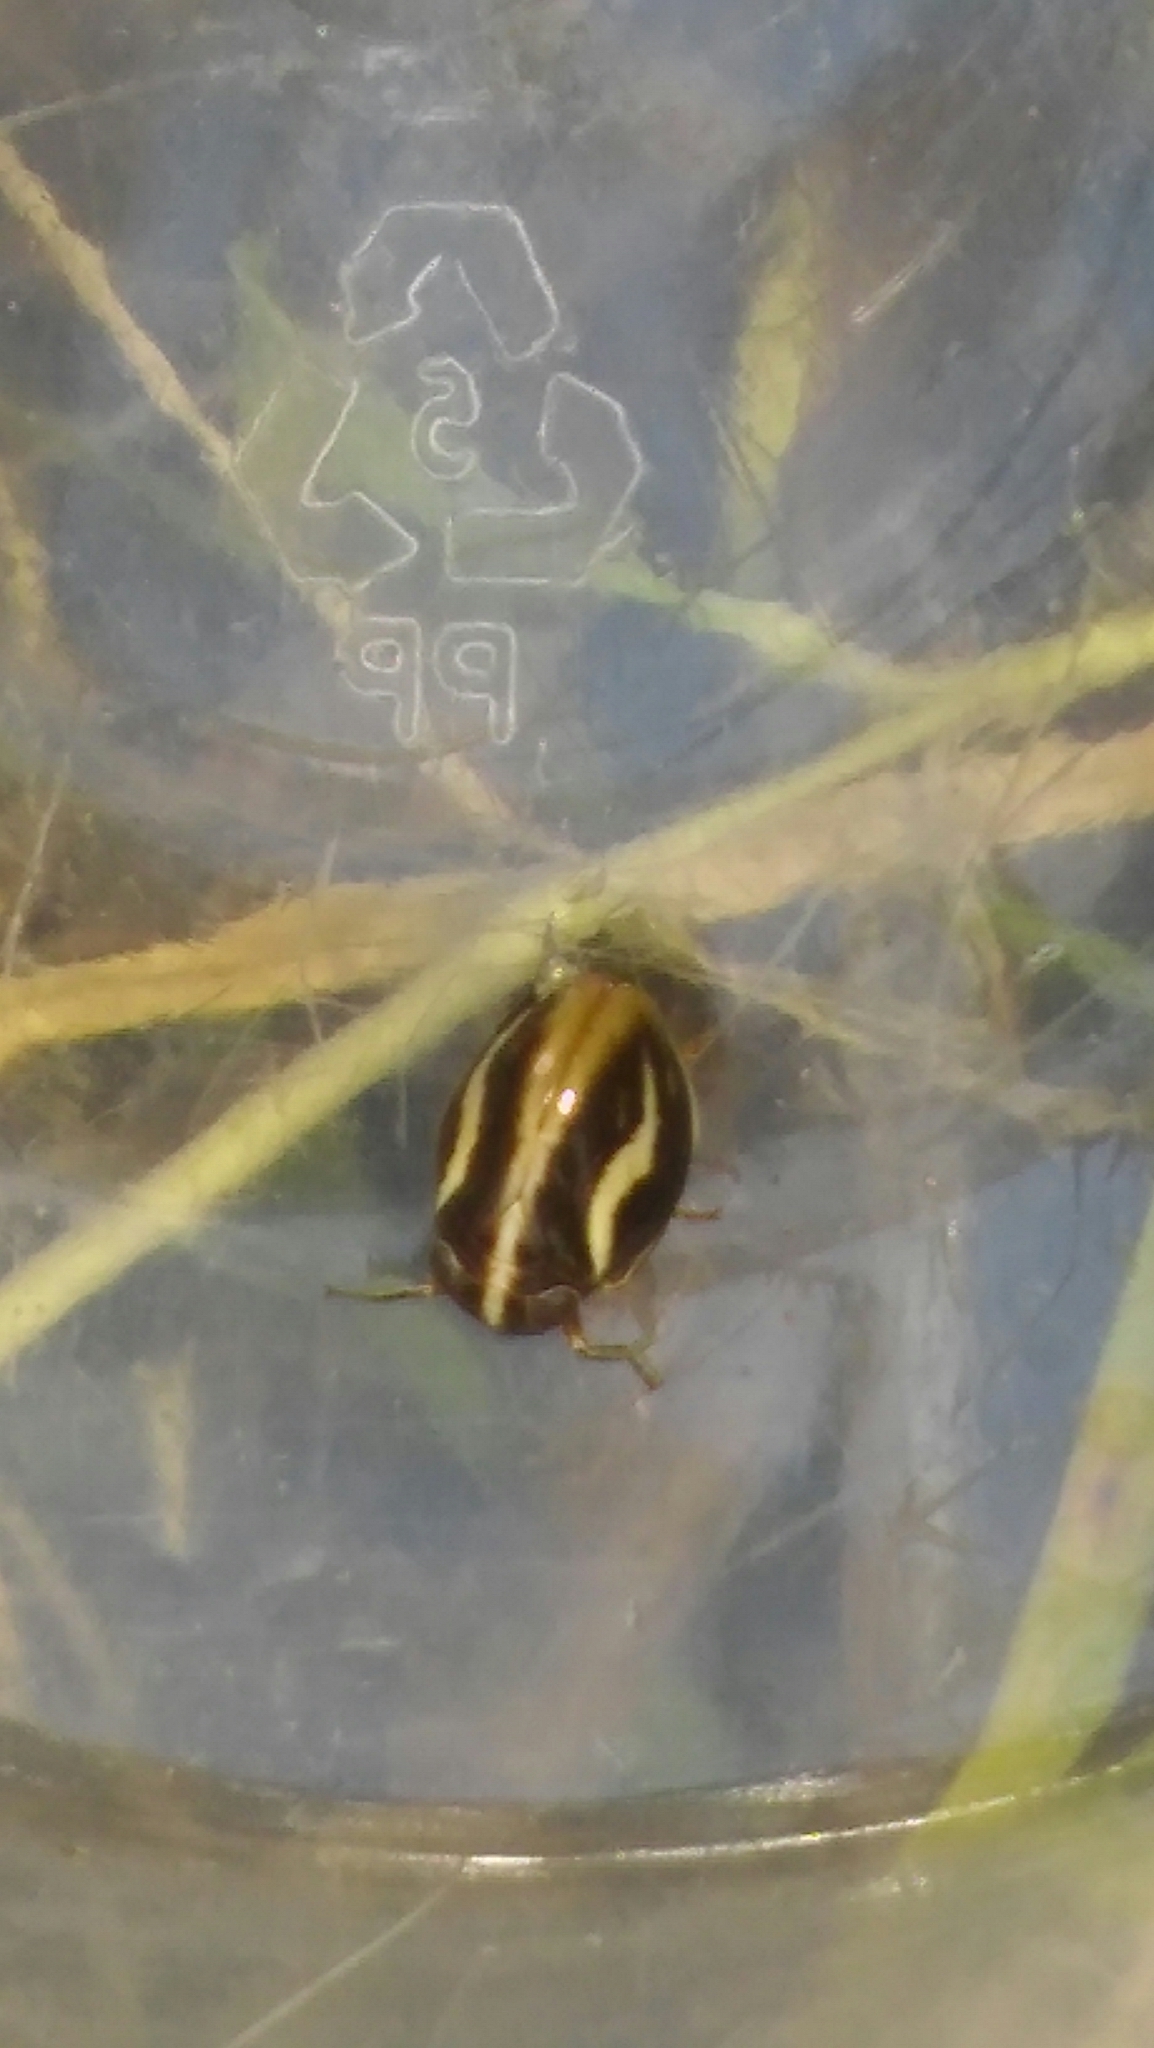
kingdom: Animalia
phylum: Arthropoda
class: Insecta
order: Hemiptera
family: Issidae
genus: Argepara
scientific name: Argepara lyra
